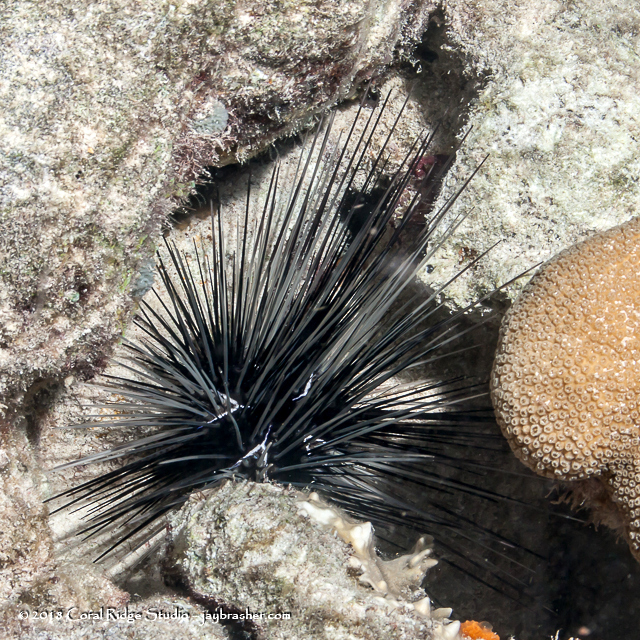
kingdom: Animalia
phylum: Echinodermata
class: Echinoidea
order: Diadematoida
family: Diadematidae
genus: Diadema
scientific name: Diadema antillarum
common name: Spiny urchin
